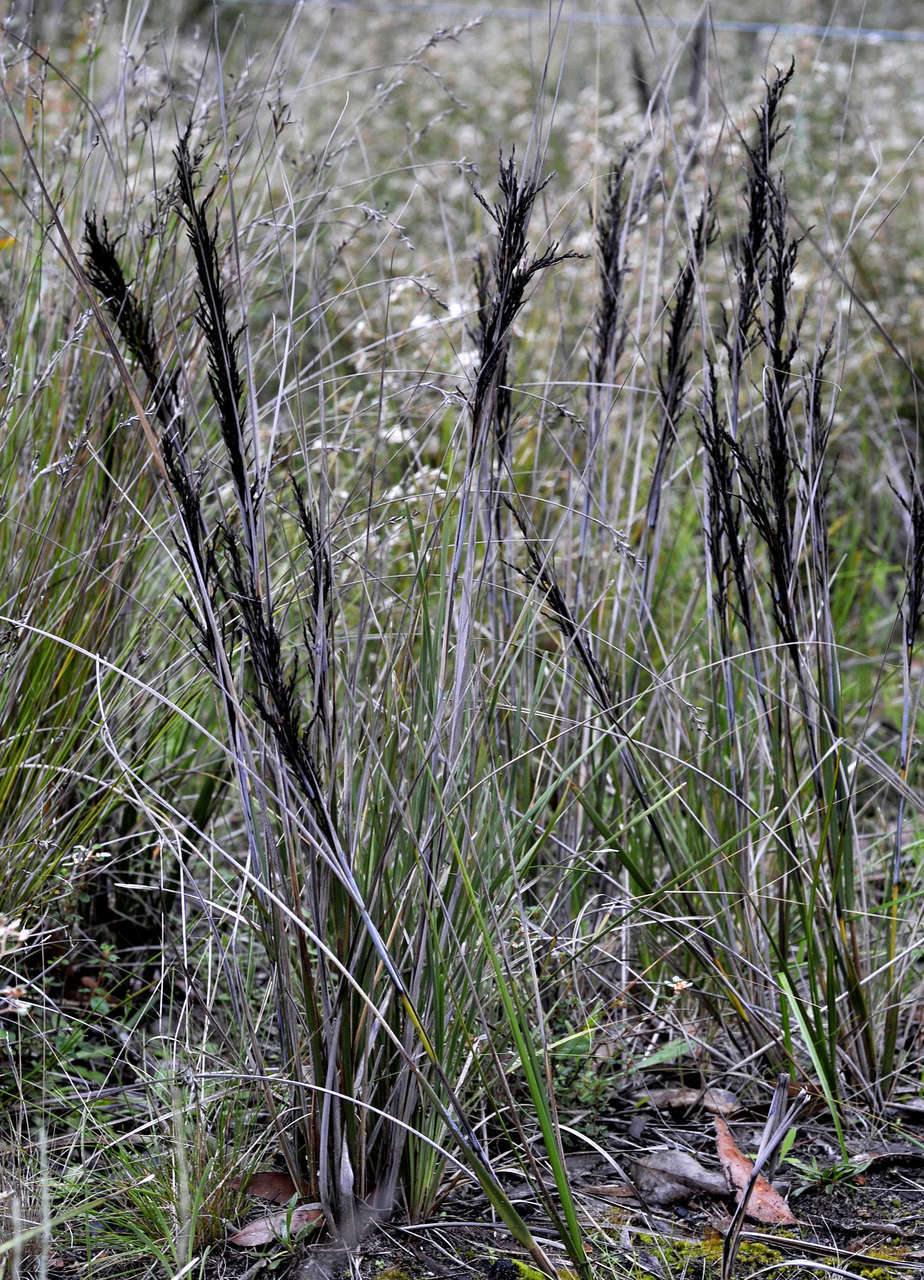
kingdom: Plantae
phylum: Tracheophyta
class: Liliopsida
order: Poales
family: Cyperaceae
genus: Gahnia
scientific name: Gahnia radula
